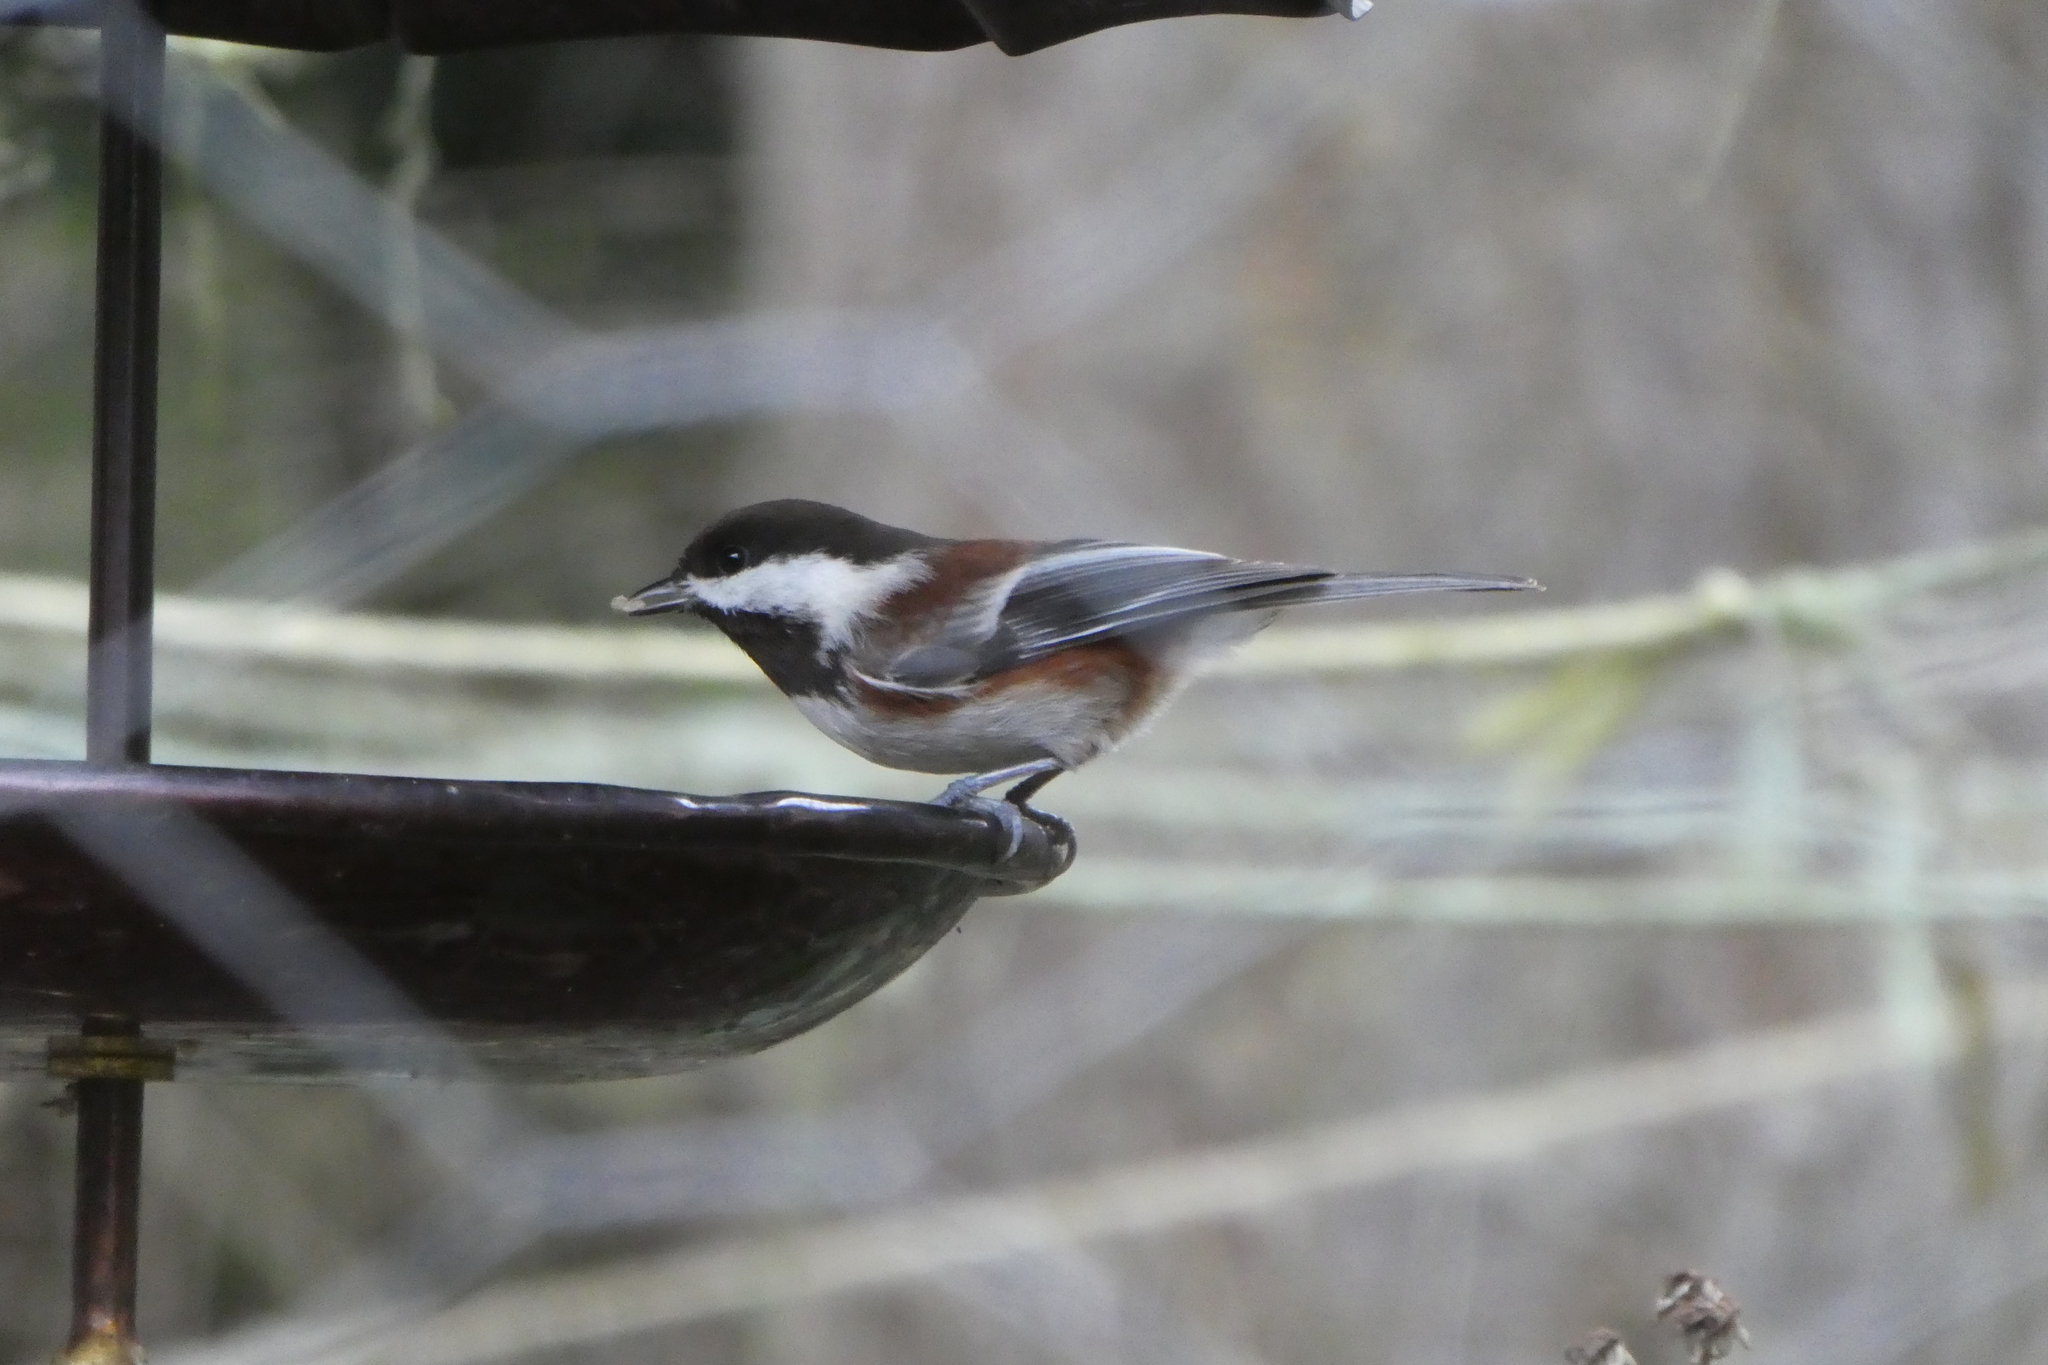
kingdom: Animalia
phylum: Chordata
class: Aves
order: Passeriformes
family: Paridae
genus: Poecile
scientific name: Poecile rufescens
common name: Chestnut-backed chickadee
